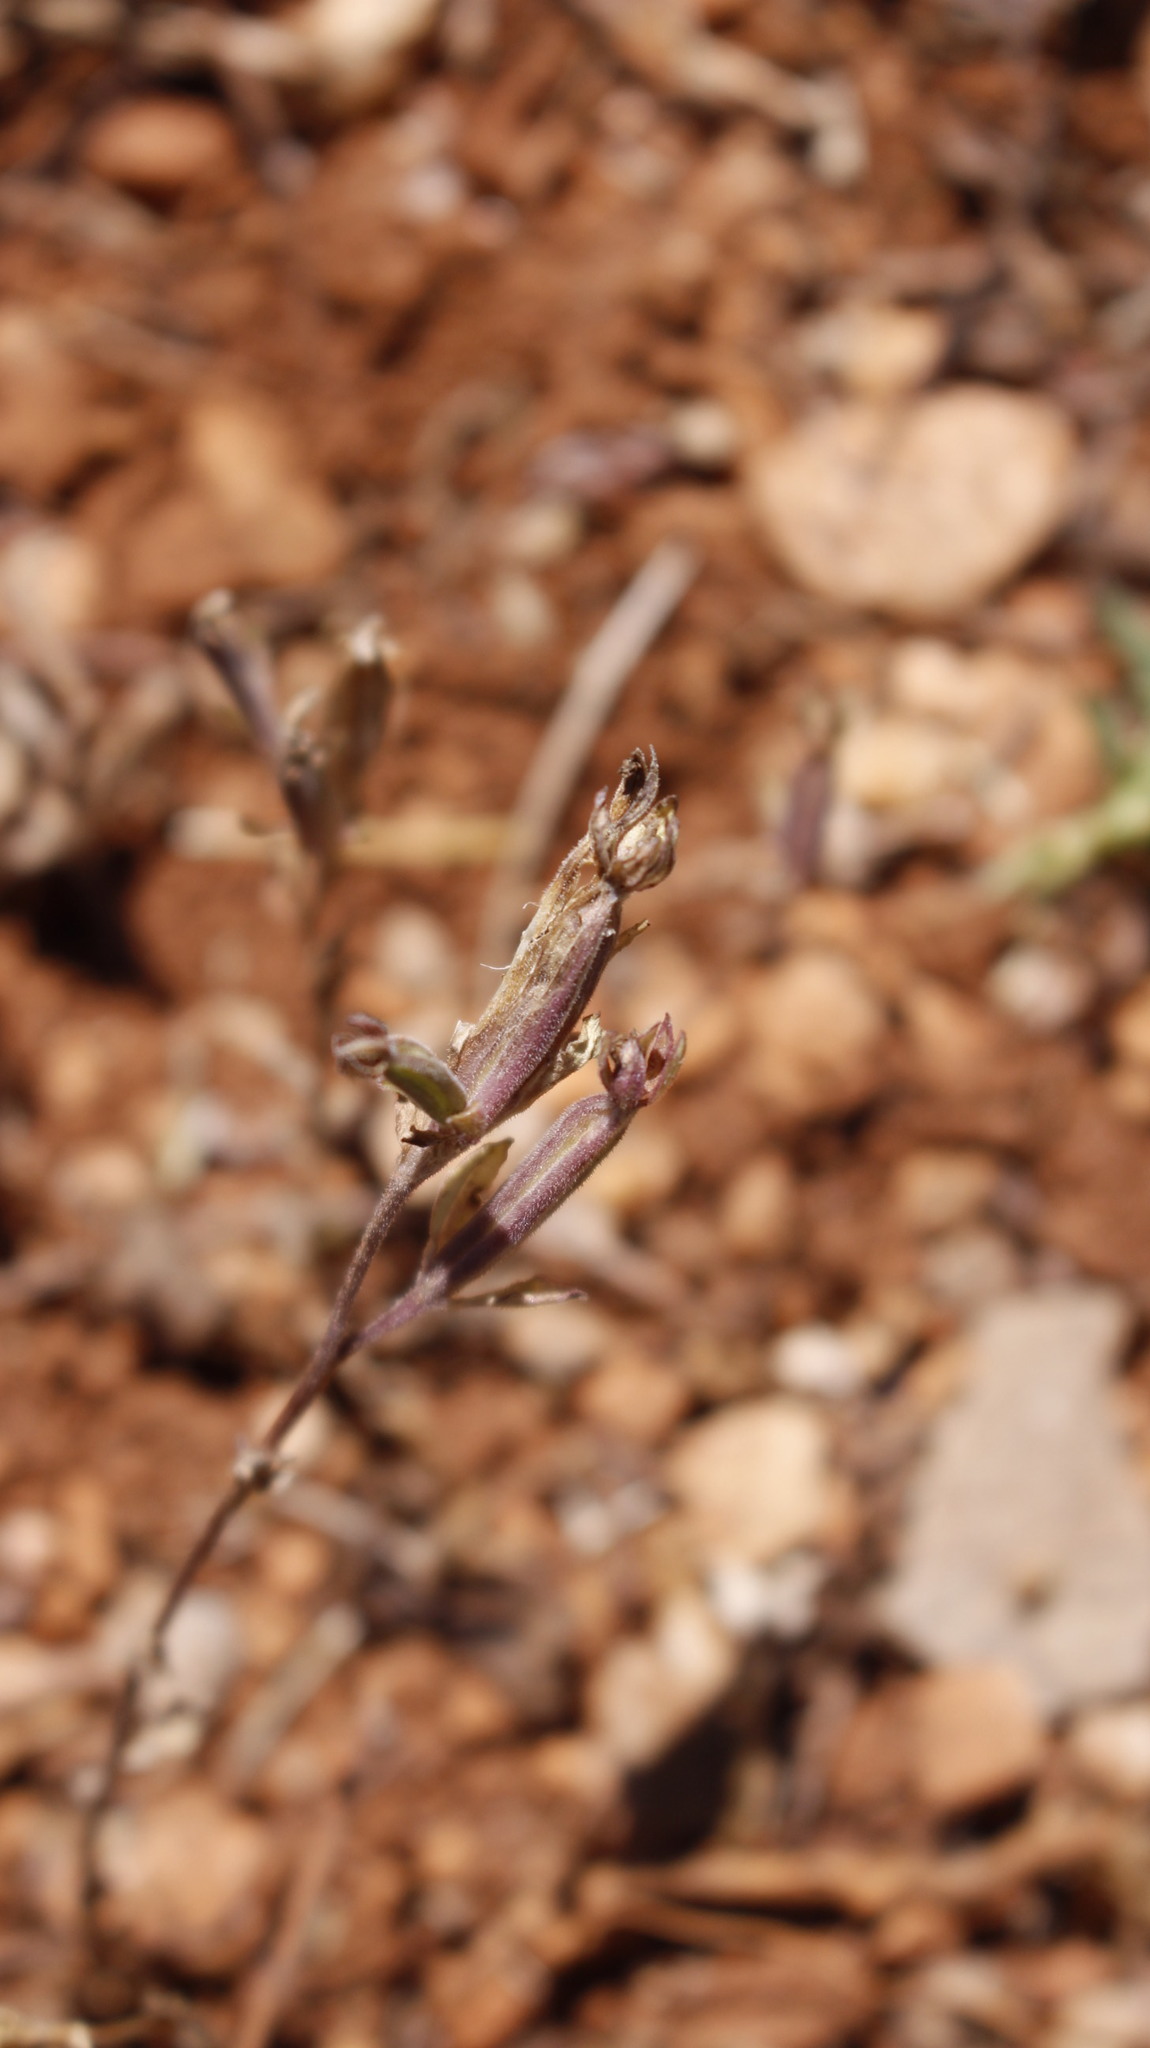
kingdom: Plantae
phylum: Tracheophyta
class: Magnoliopsida
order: Asterales
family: Campanulaceae
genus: Legousia
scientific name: Legousia hybrida
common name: Venus's-looking-glass
